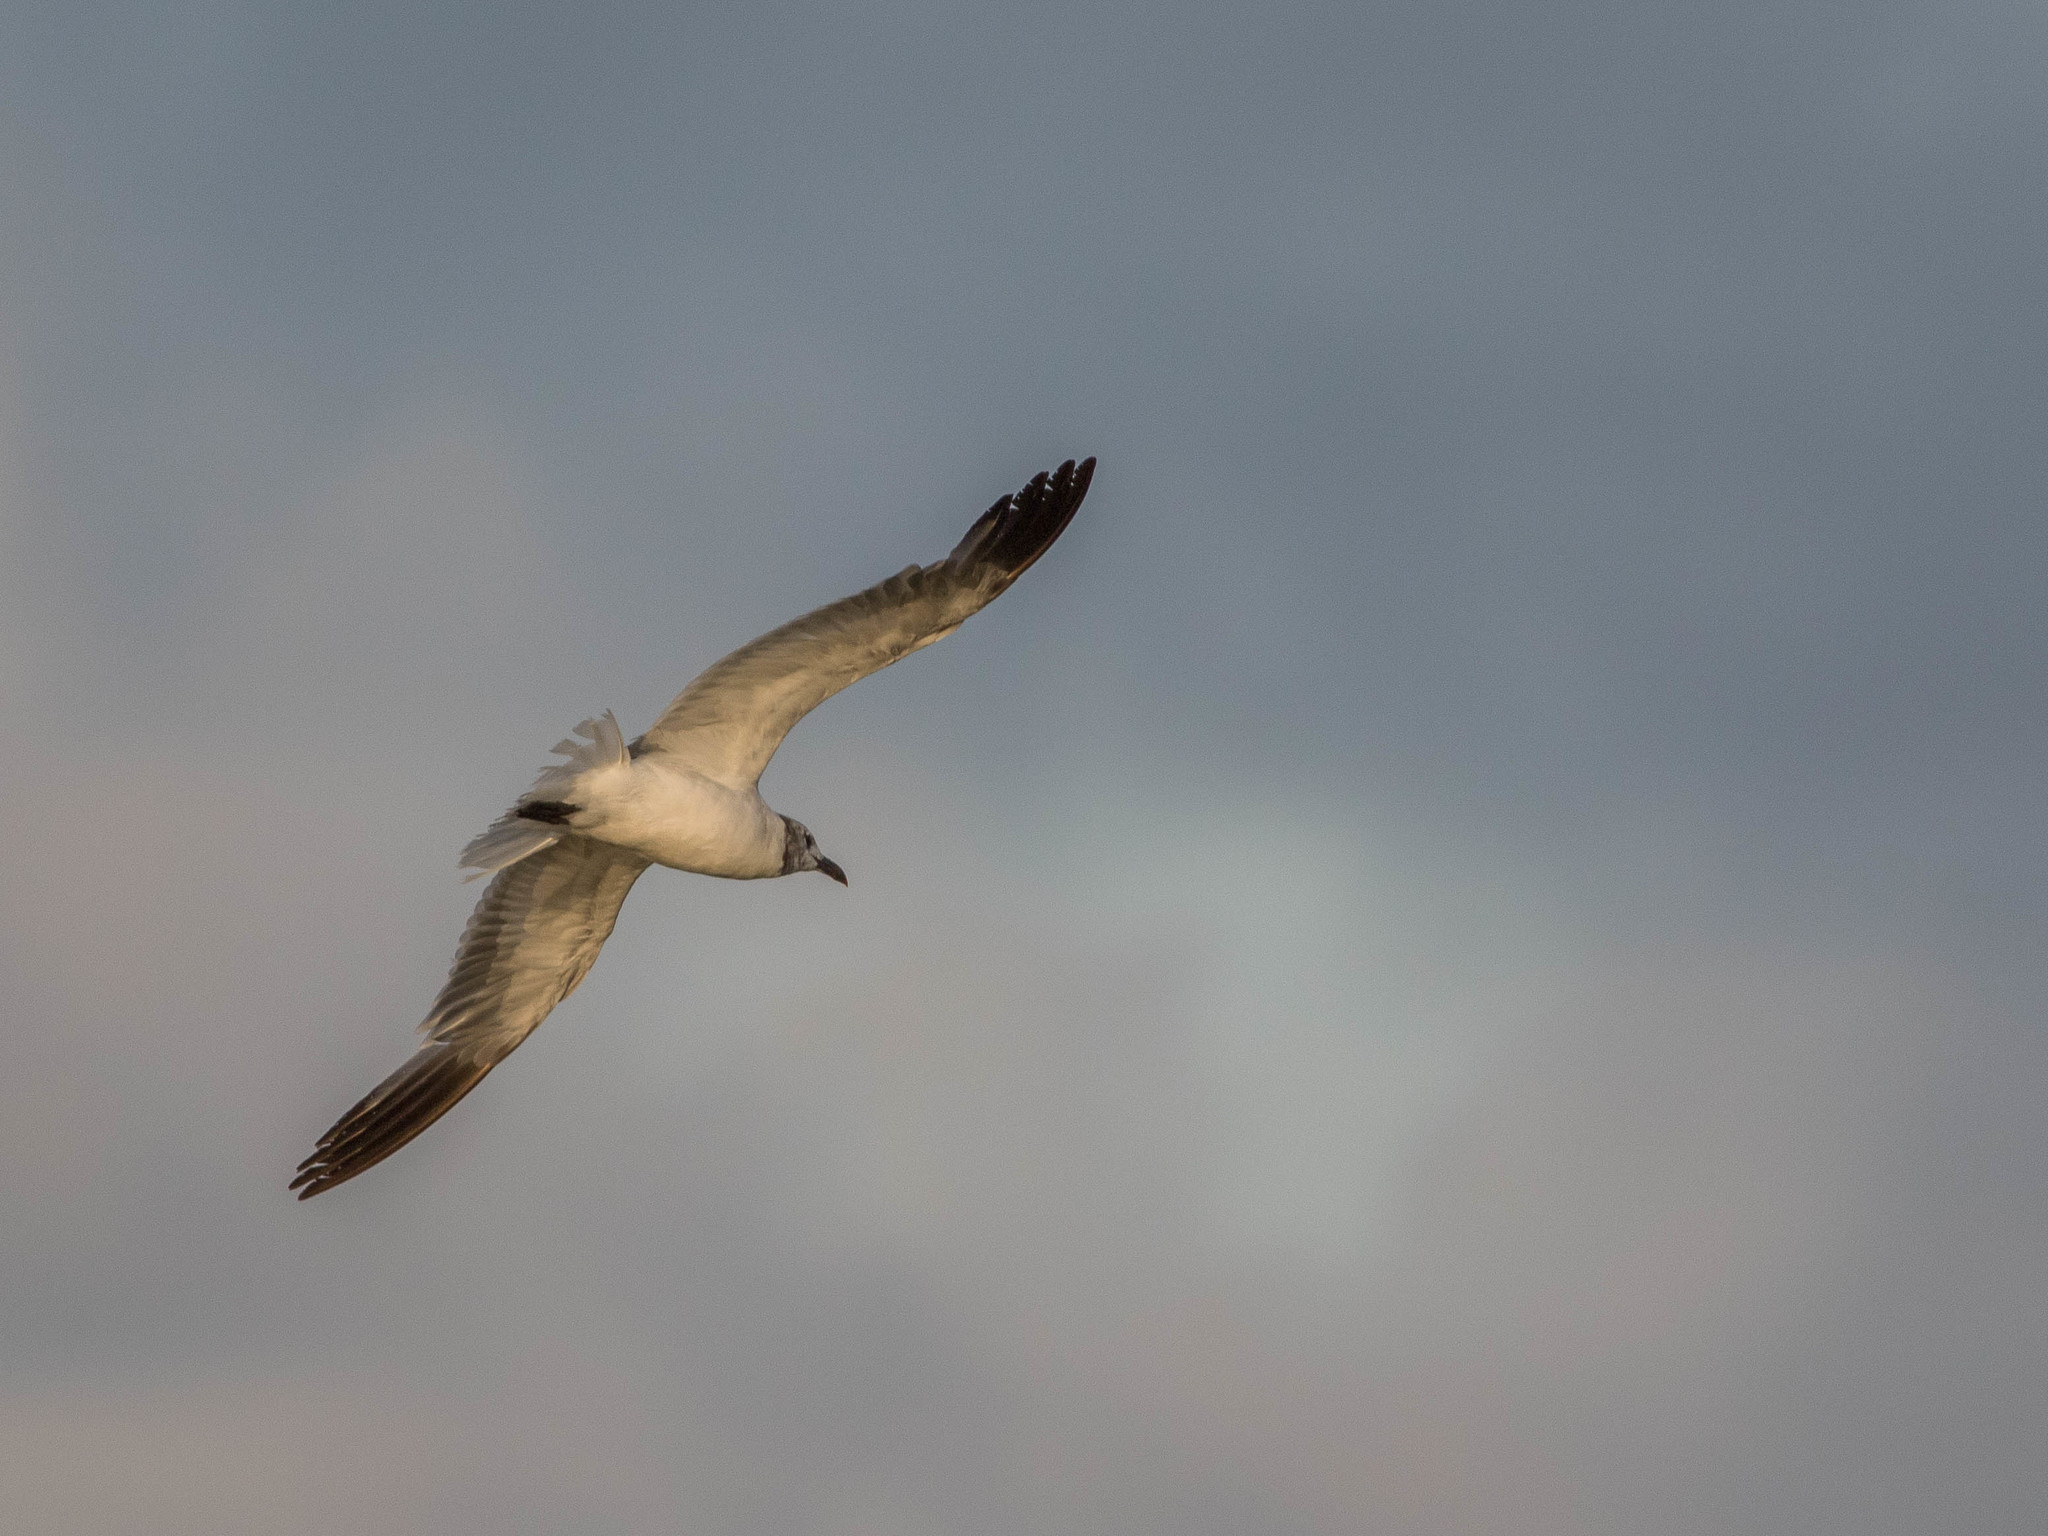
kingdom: Animalia
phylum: Chordata
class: Aves
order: Charadriiformes
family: Laridae
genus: Leucophaeus
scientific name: Leucophaeus atricilla
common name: Laughing gull
